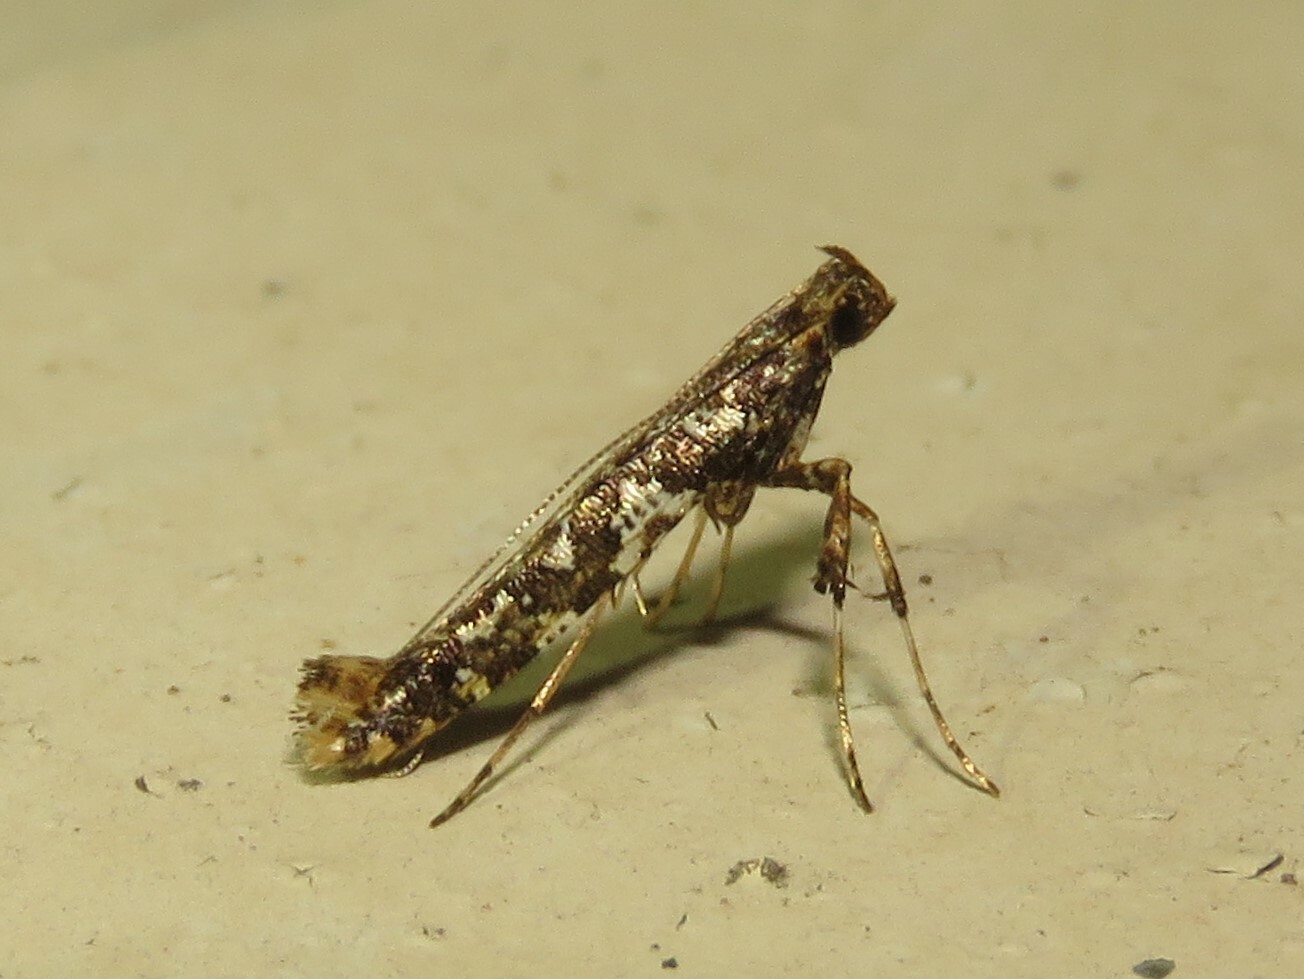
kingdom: Animalia
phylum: Arthropoda
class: Insecta
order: Lepidoptera
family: Gracillariidae
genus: Caloptilia
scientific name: Caloptilia serotinella
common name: Cherry leafroller moth
